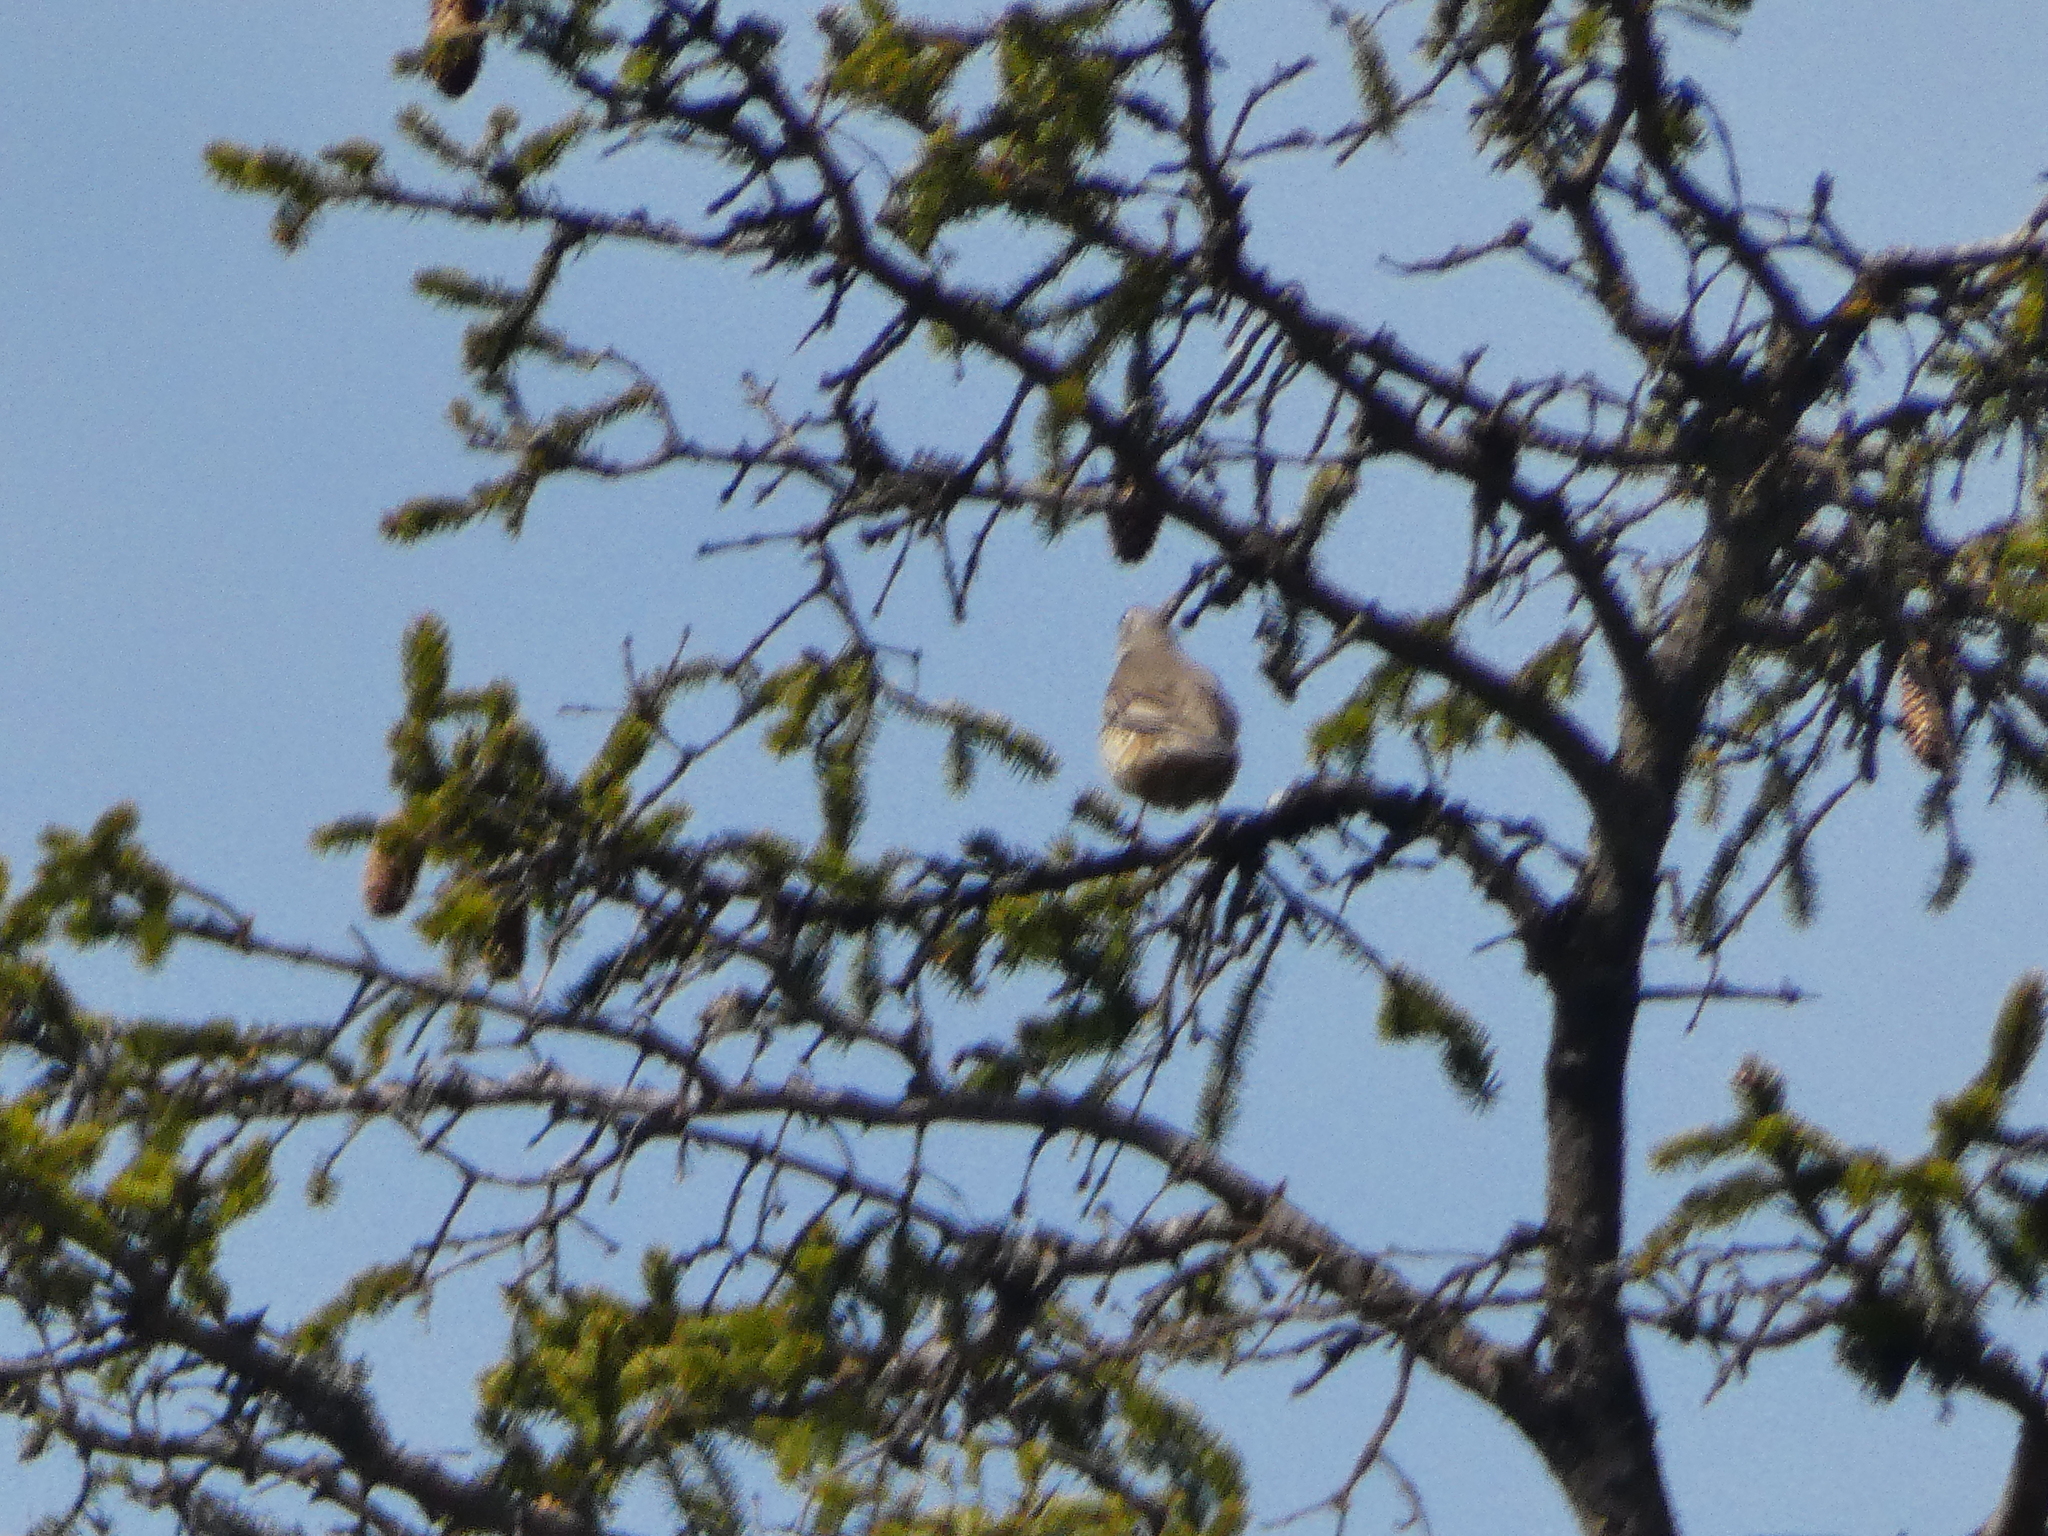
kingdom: Animalia
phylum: Chordata
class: Aves
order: Passeriformes
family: Turdidae
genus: Turdus
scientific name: Turdus viscivorus
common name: Mistle thrush
